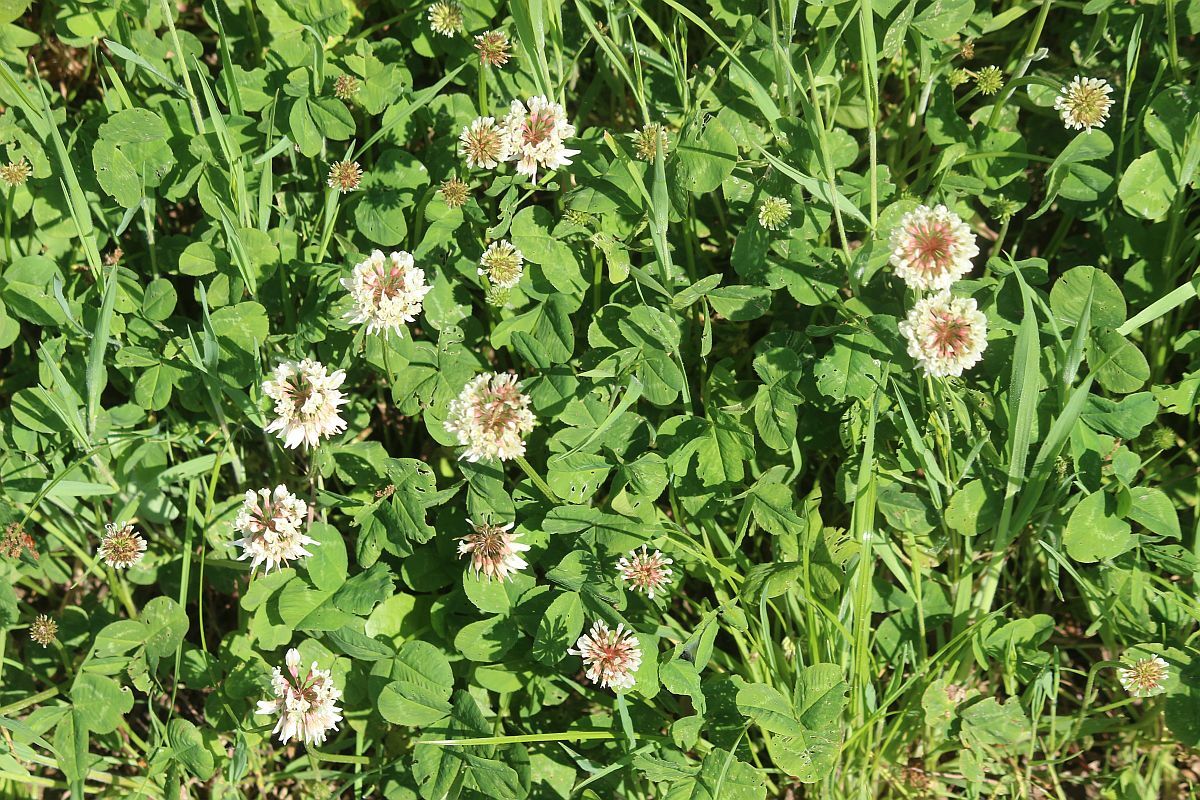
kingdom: Plantae
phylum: Tracheophyta
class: Magnoliopsida
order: Fabales
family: Fabaceae
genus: Trifolium
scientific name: Trifolium repens
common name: White clover
